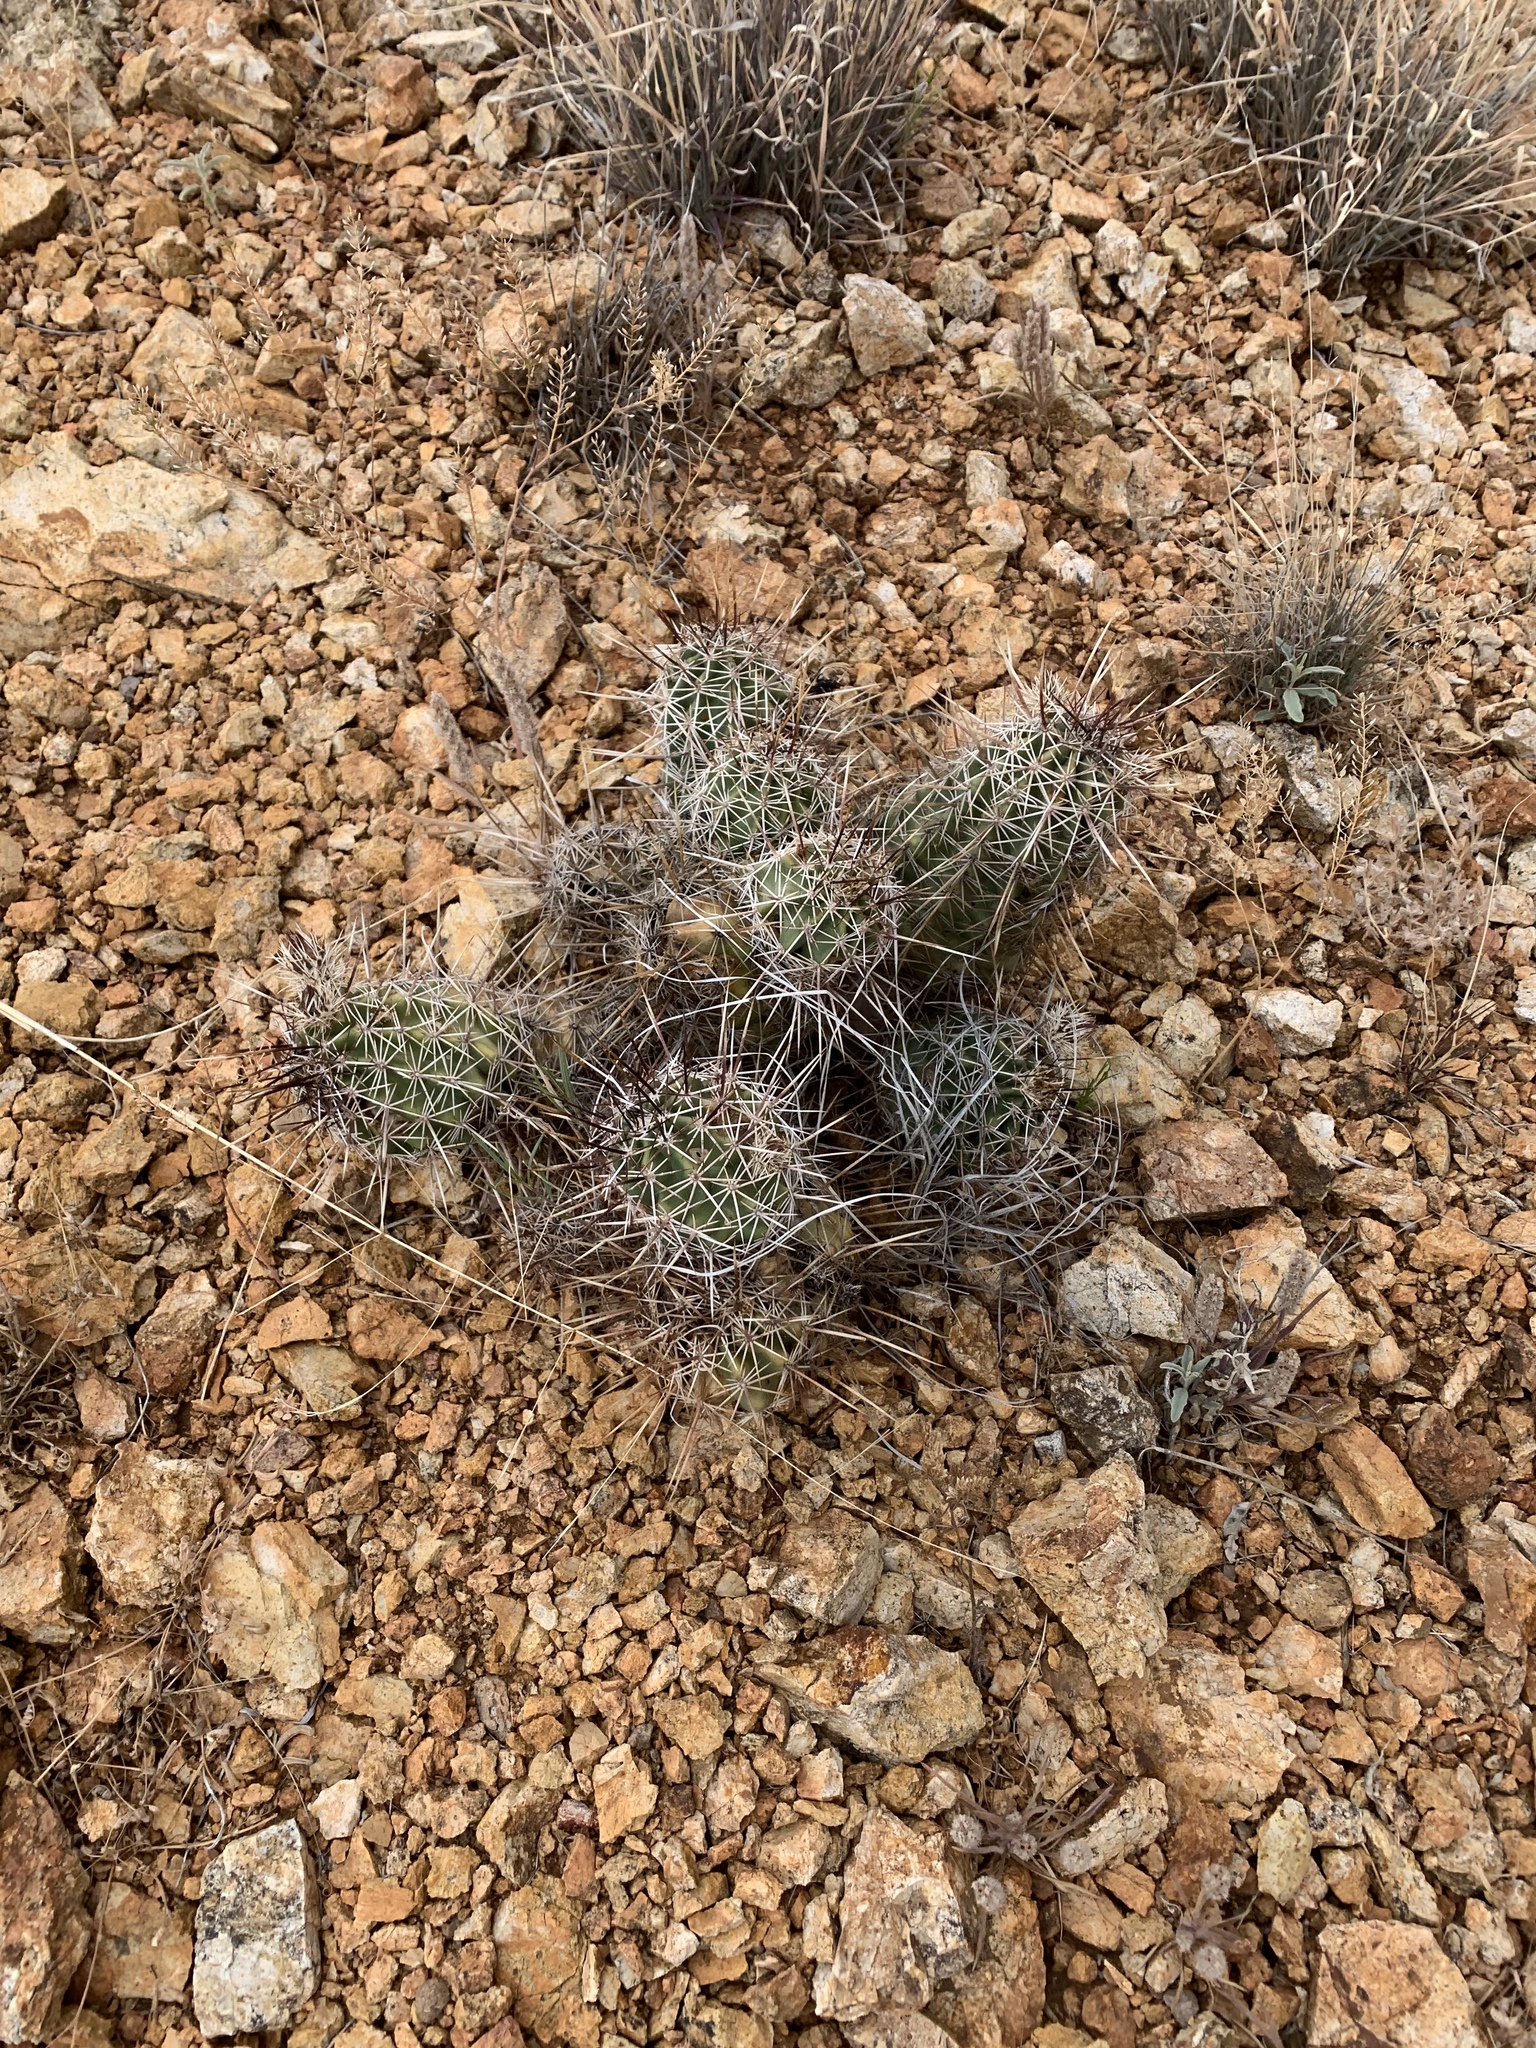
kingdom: Plantae
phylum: Tracheophyta
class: Magnoliopsida
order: Caryophyllales
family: Cactaceae
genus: Echinocereus
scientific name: Echinocereus fendleri
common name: Fendler's hedgehog cactus
